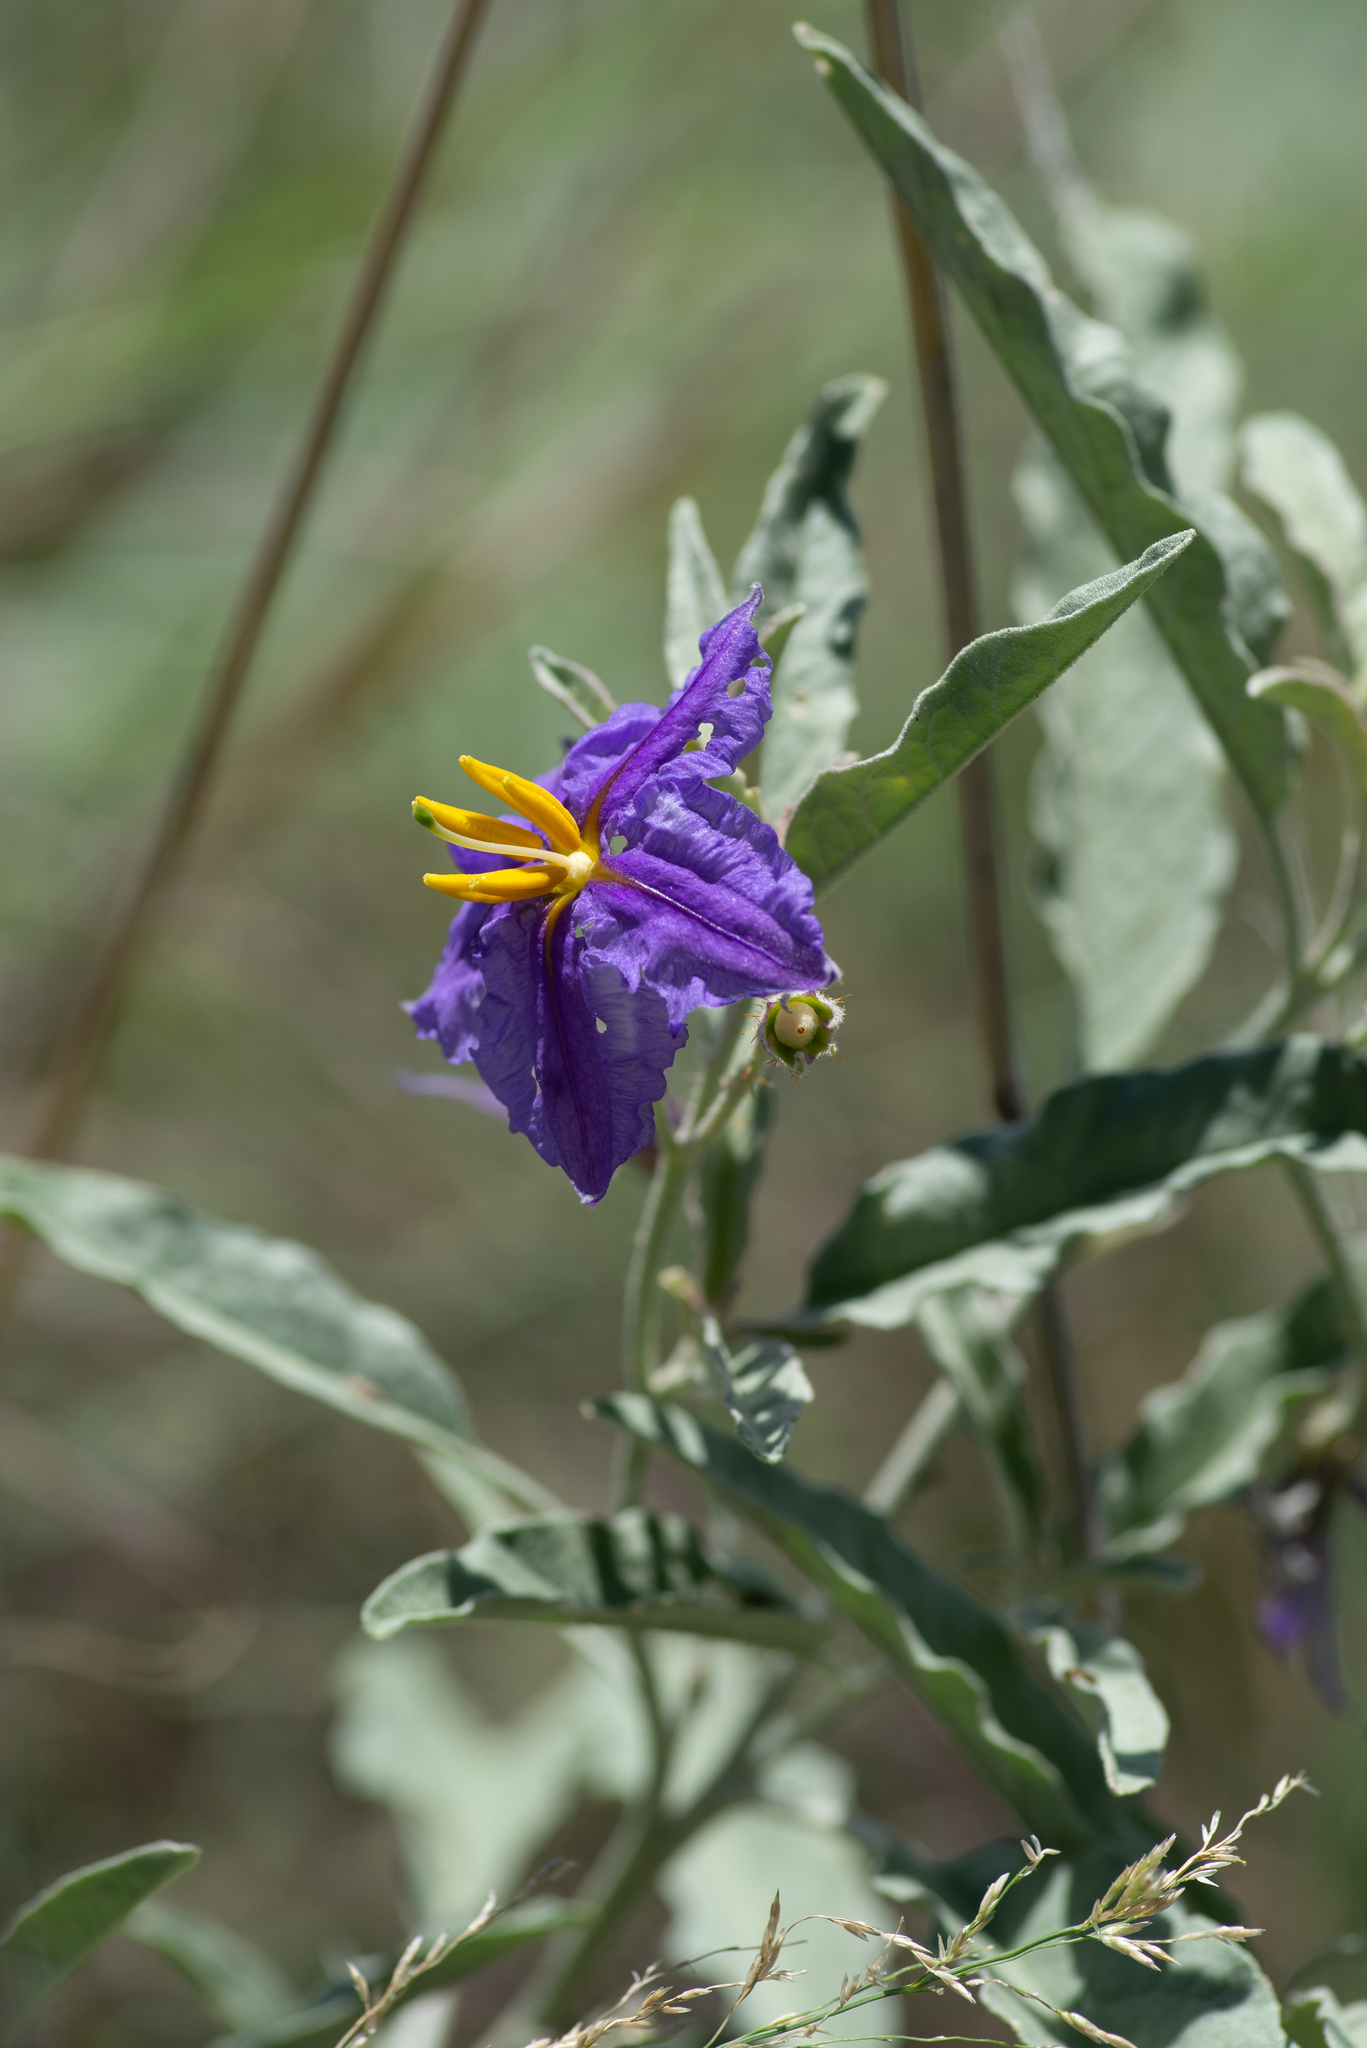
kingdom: Plantae
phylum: Tracheophyta
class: Magnoliopsida
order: Solanales
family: Solanaceae
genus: Solanum
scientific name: Solanum elaeagnifolium
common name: Silverleaf nightshade
